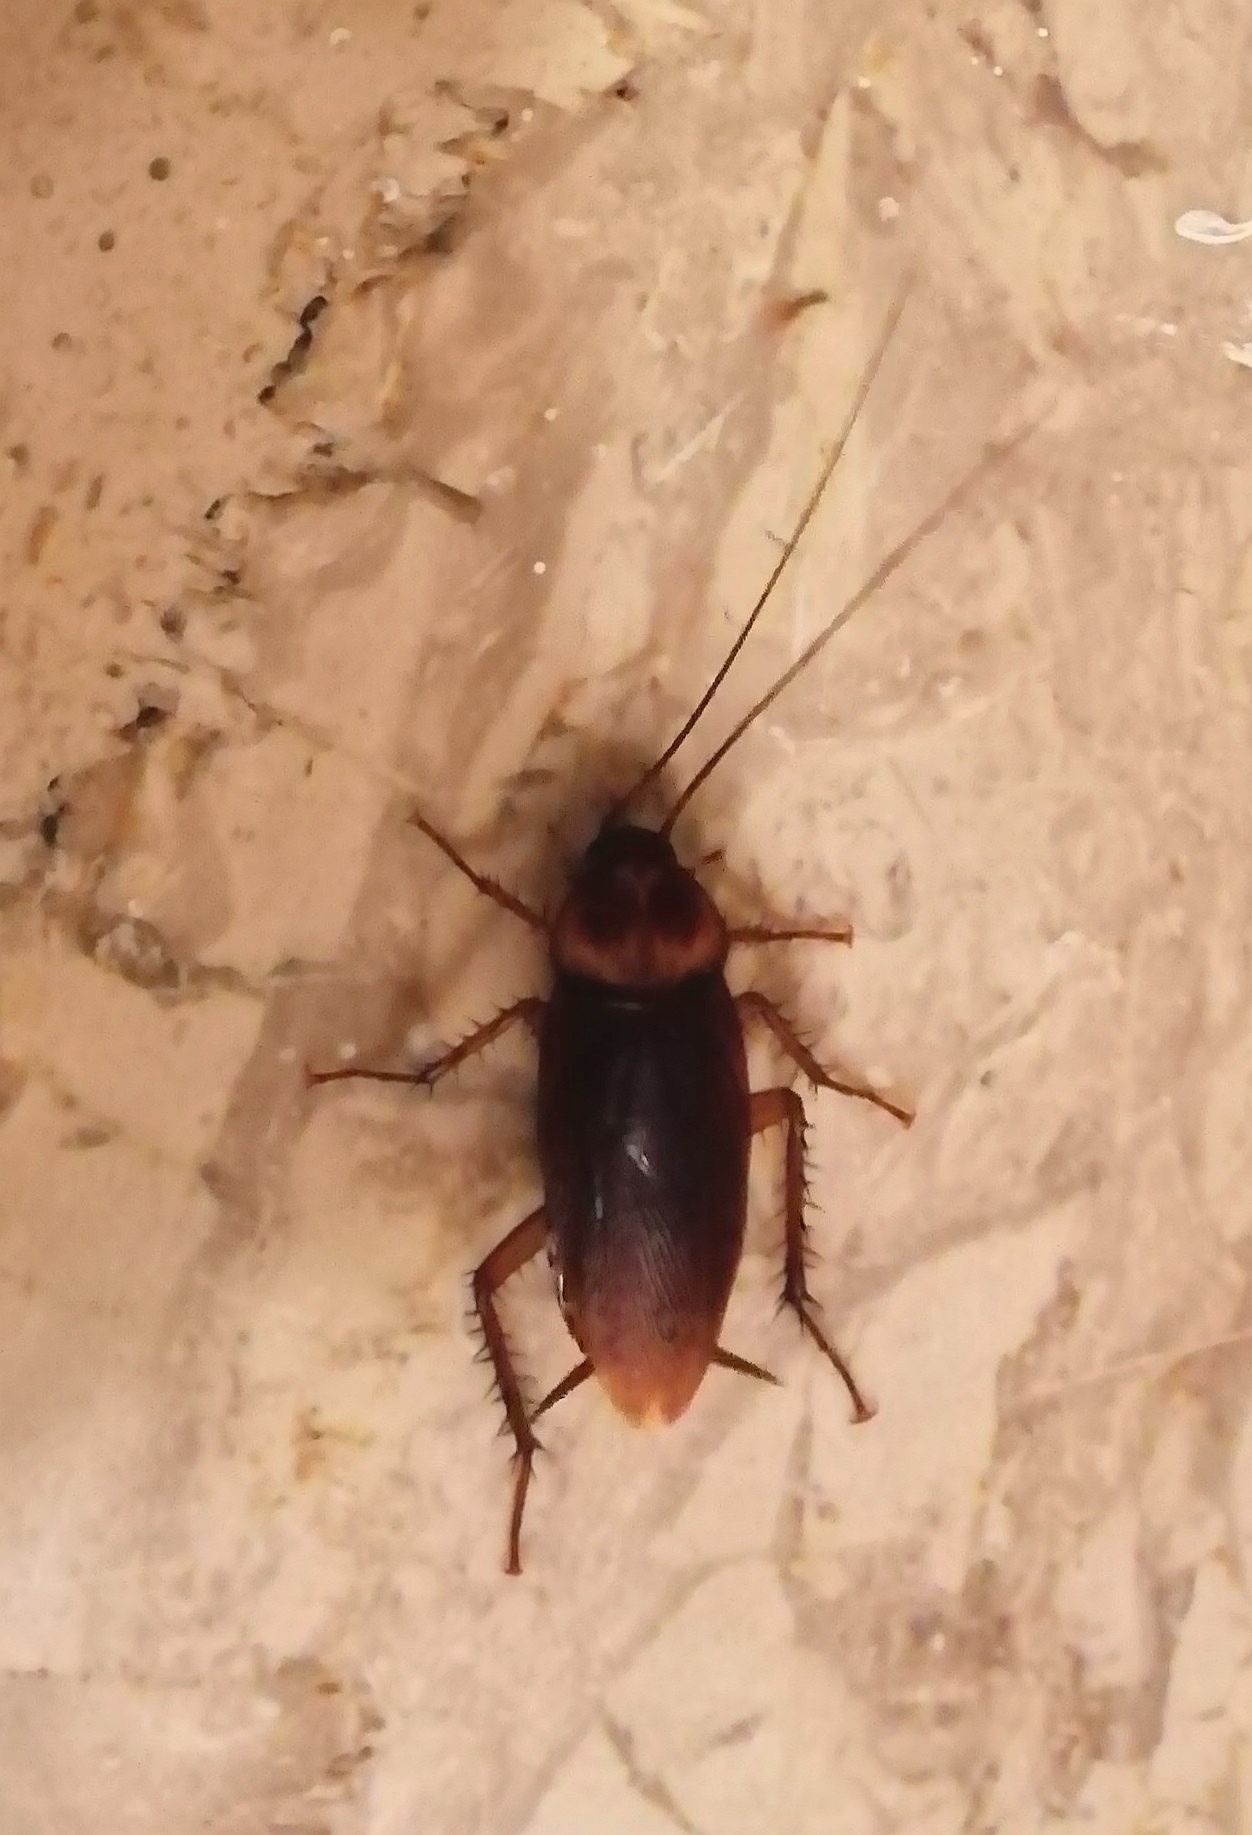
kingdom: Animalia
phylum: Arthropoda
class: Insecta
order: Blattodea
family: Blattidae
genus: Periplaneta
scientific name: Periplaneta americana
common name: American cockroach
